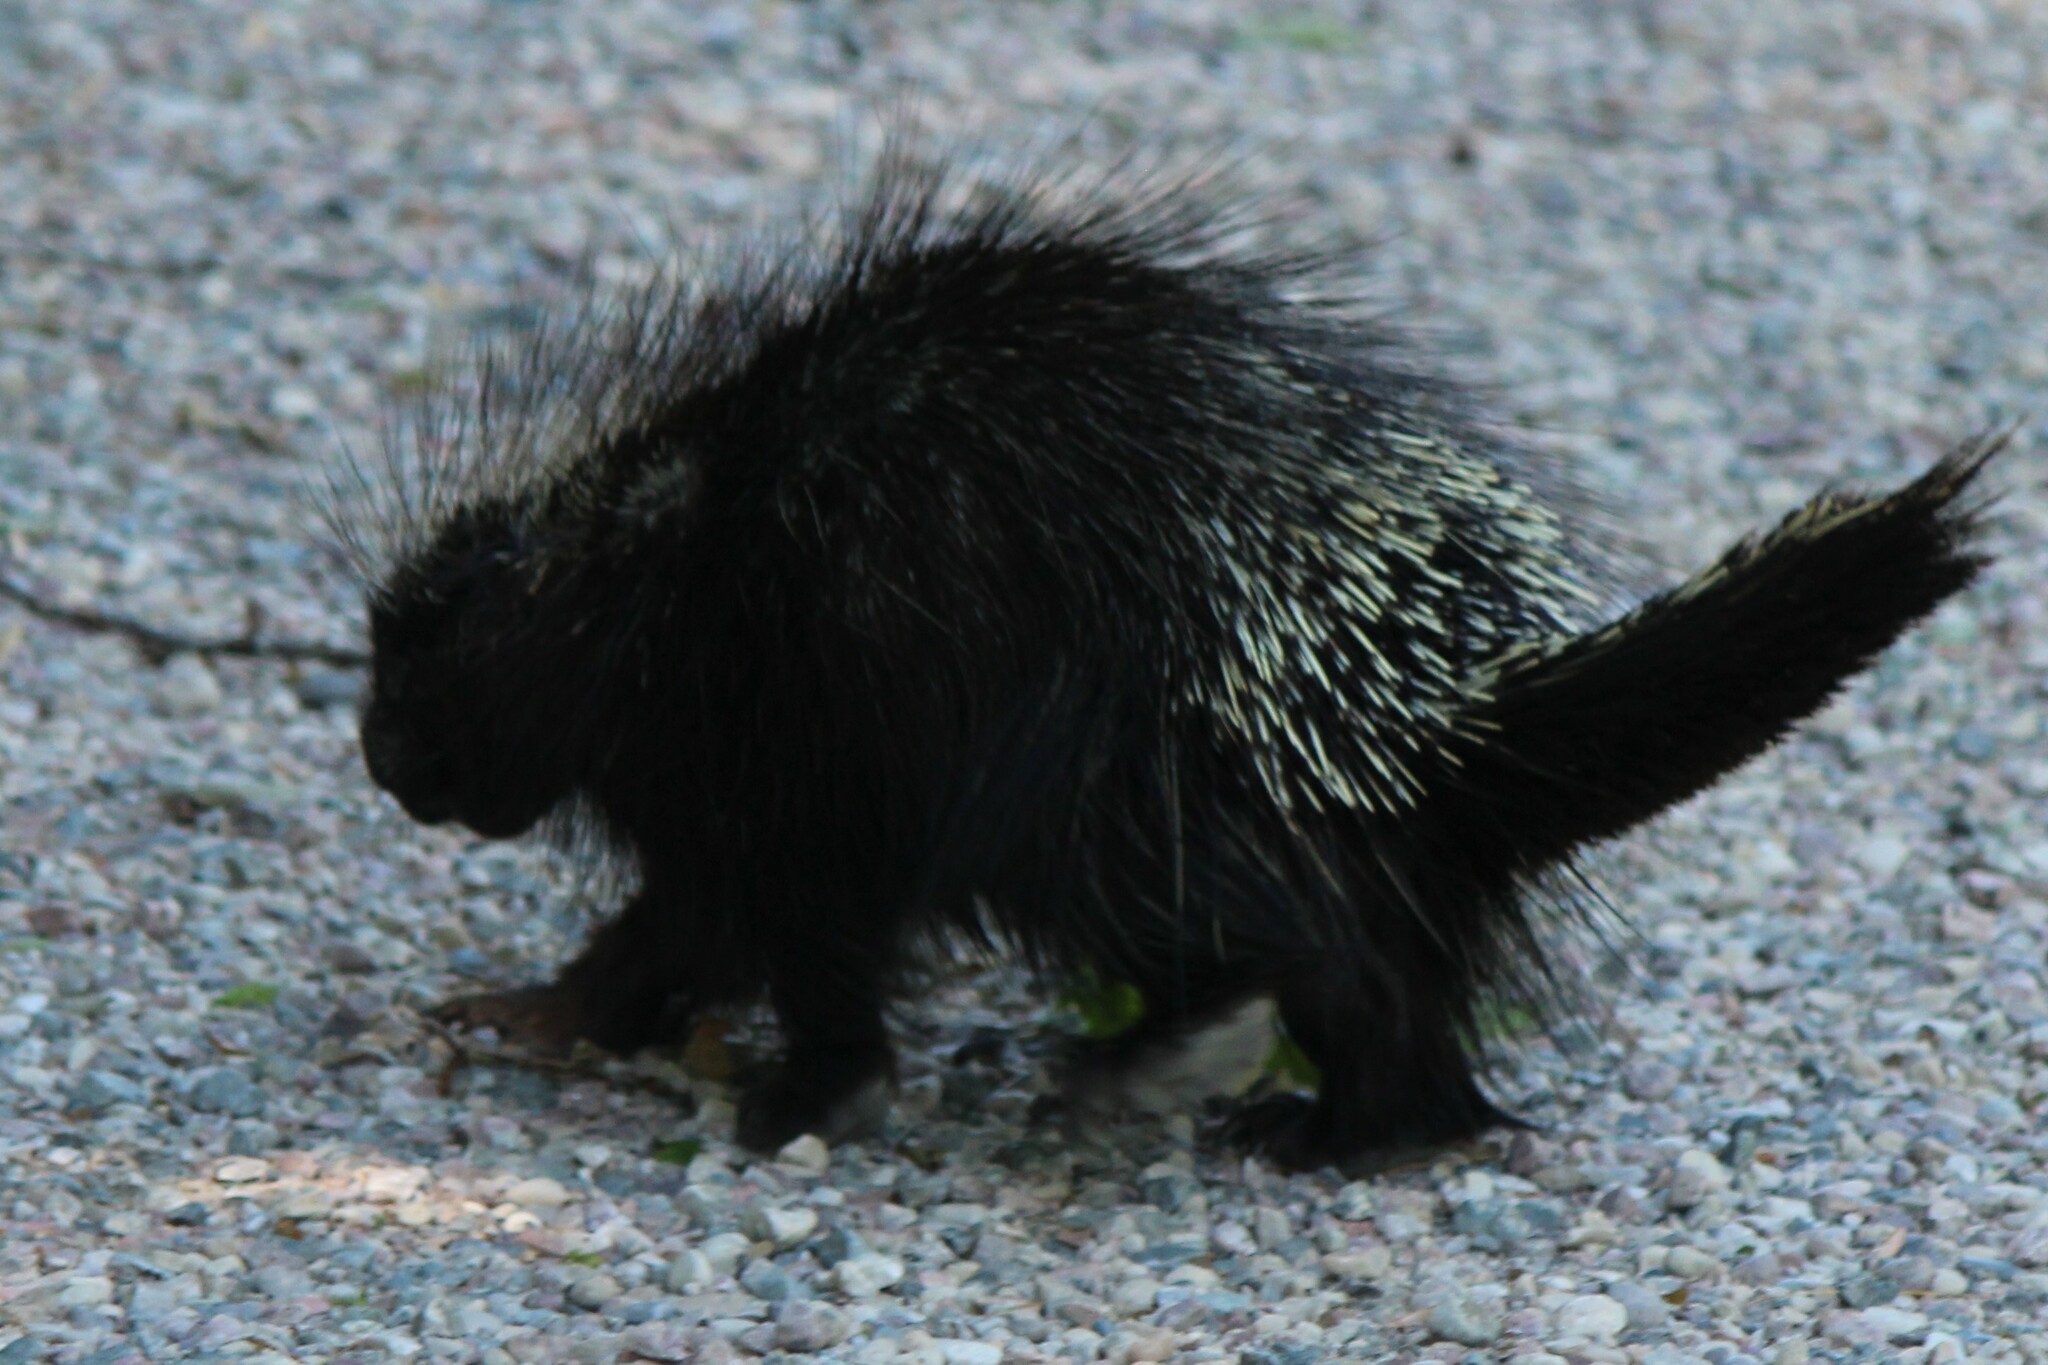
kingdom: Animalia
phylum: Chordata
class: Mammalia
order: Rodentia
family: Erethizontidae
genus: Erethizon
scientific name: Erethizon dorsatus
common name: North american porcupine
